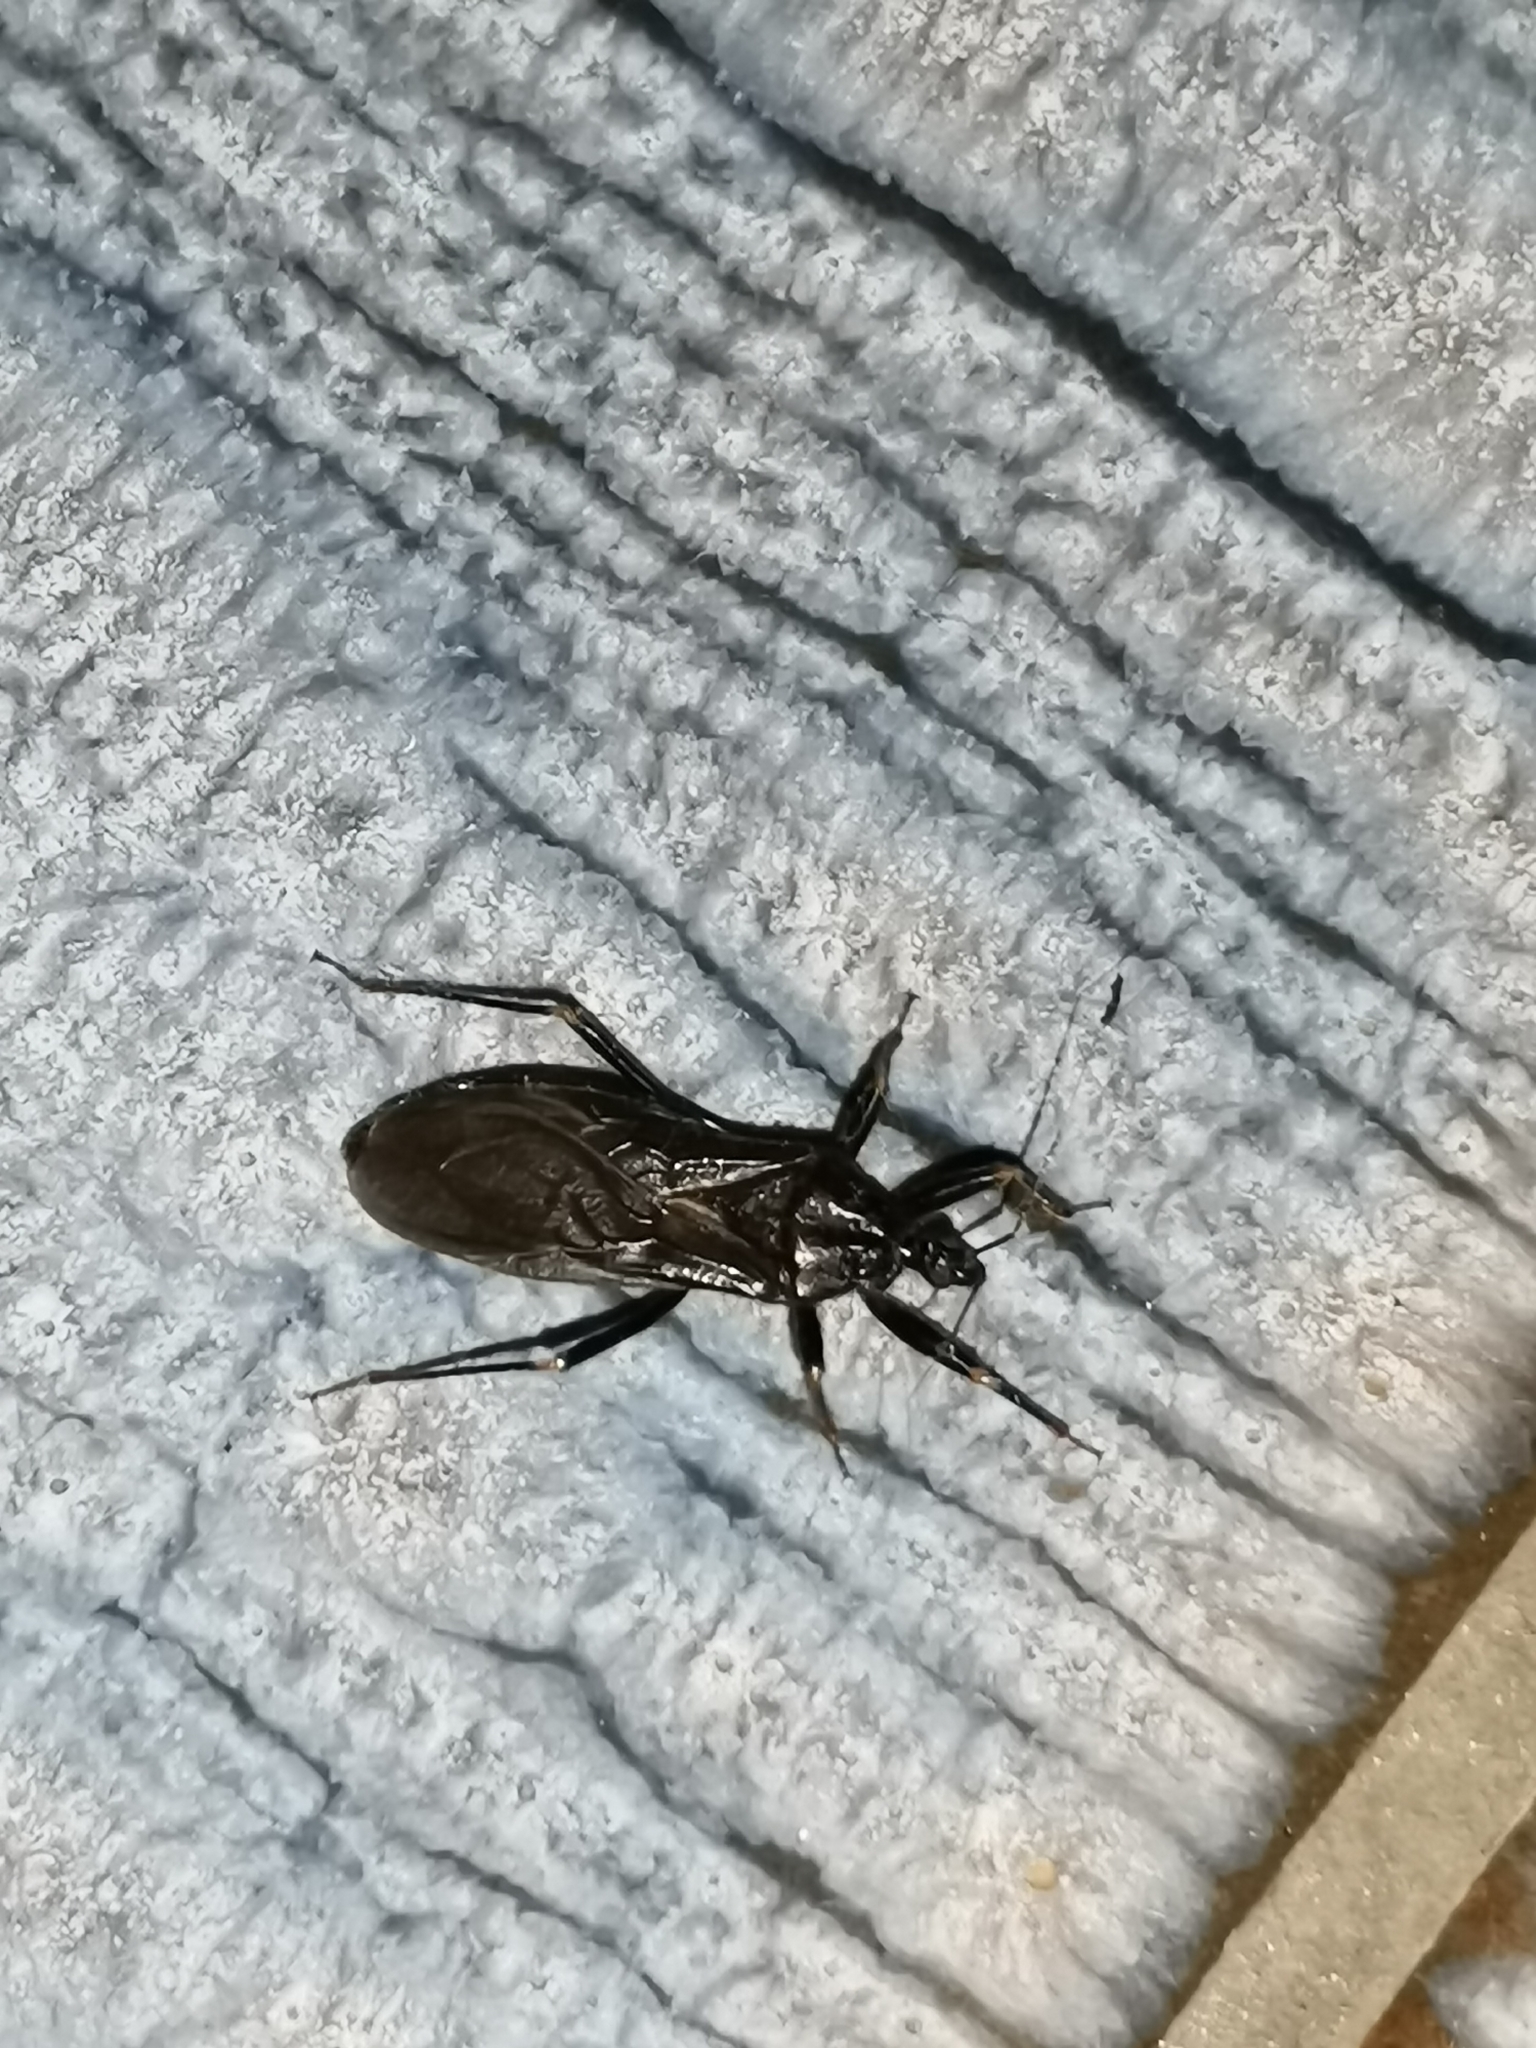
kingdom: Animalia
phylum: Arthropoda
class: Insecta
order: Hemiptera
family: Reduviidae
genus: Reduvius
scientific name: Reduvius personatus
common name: Masked hunter
